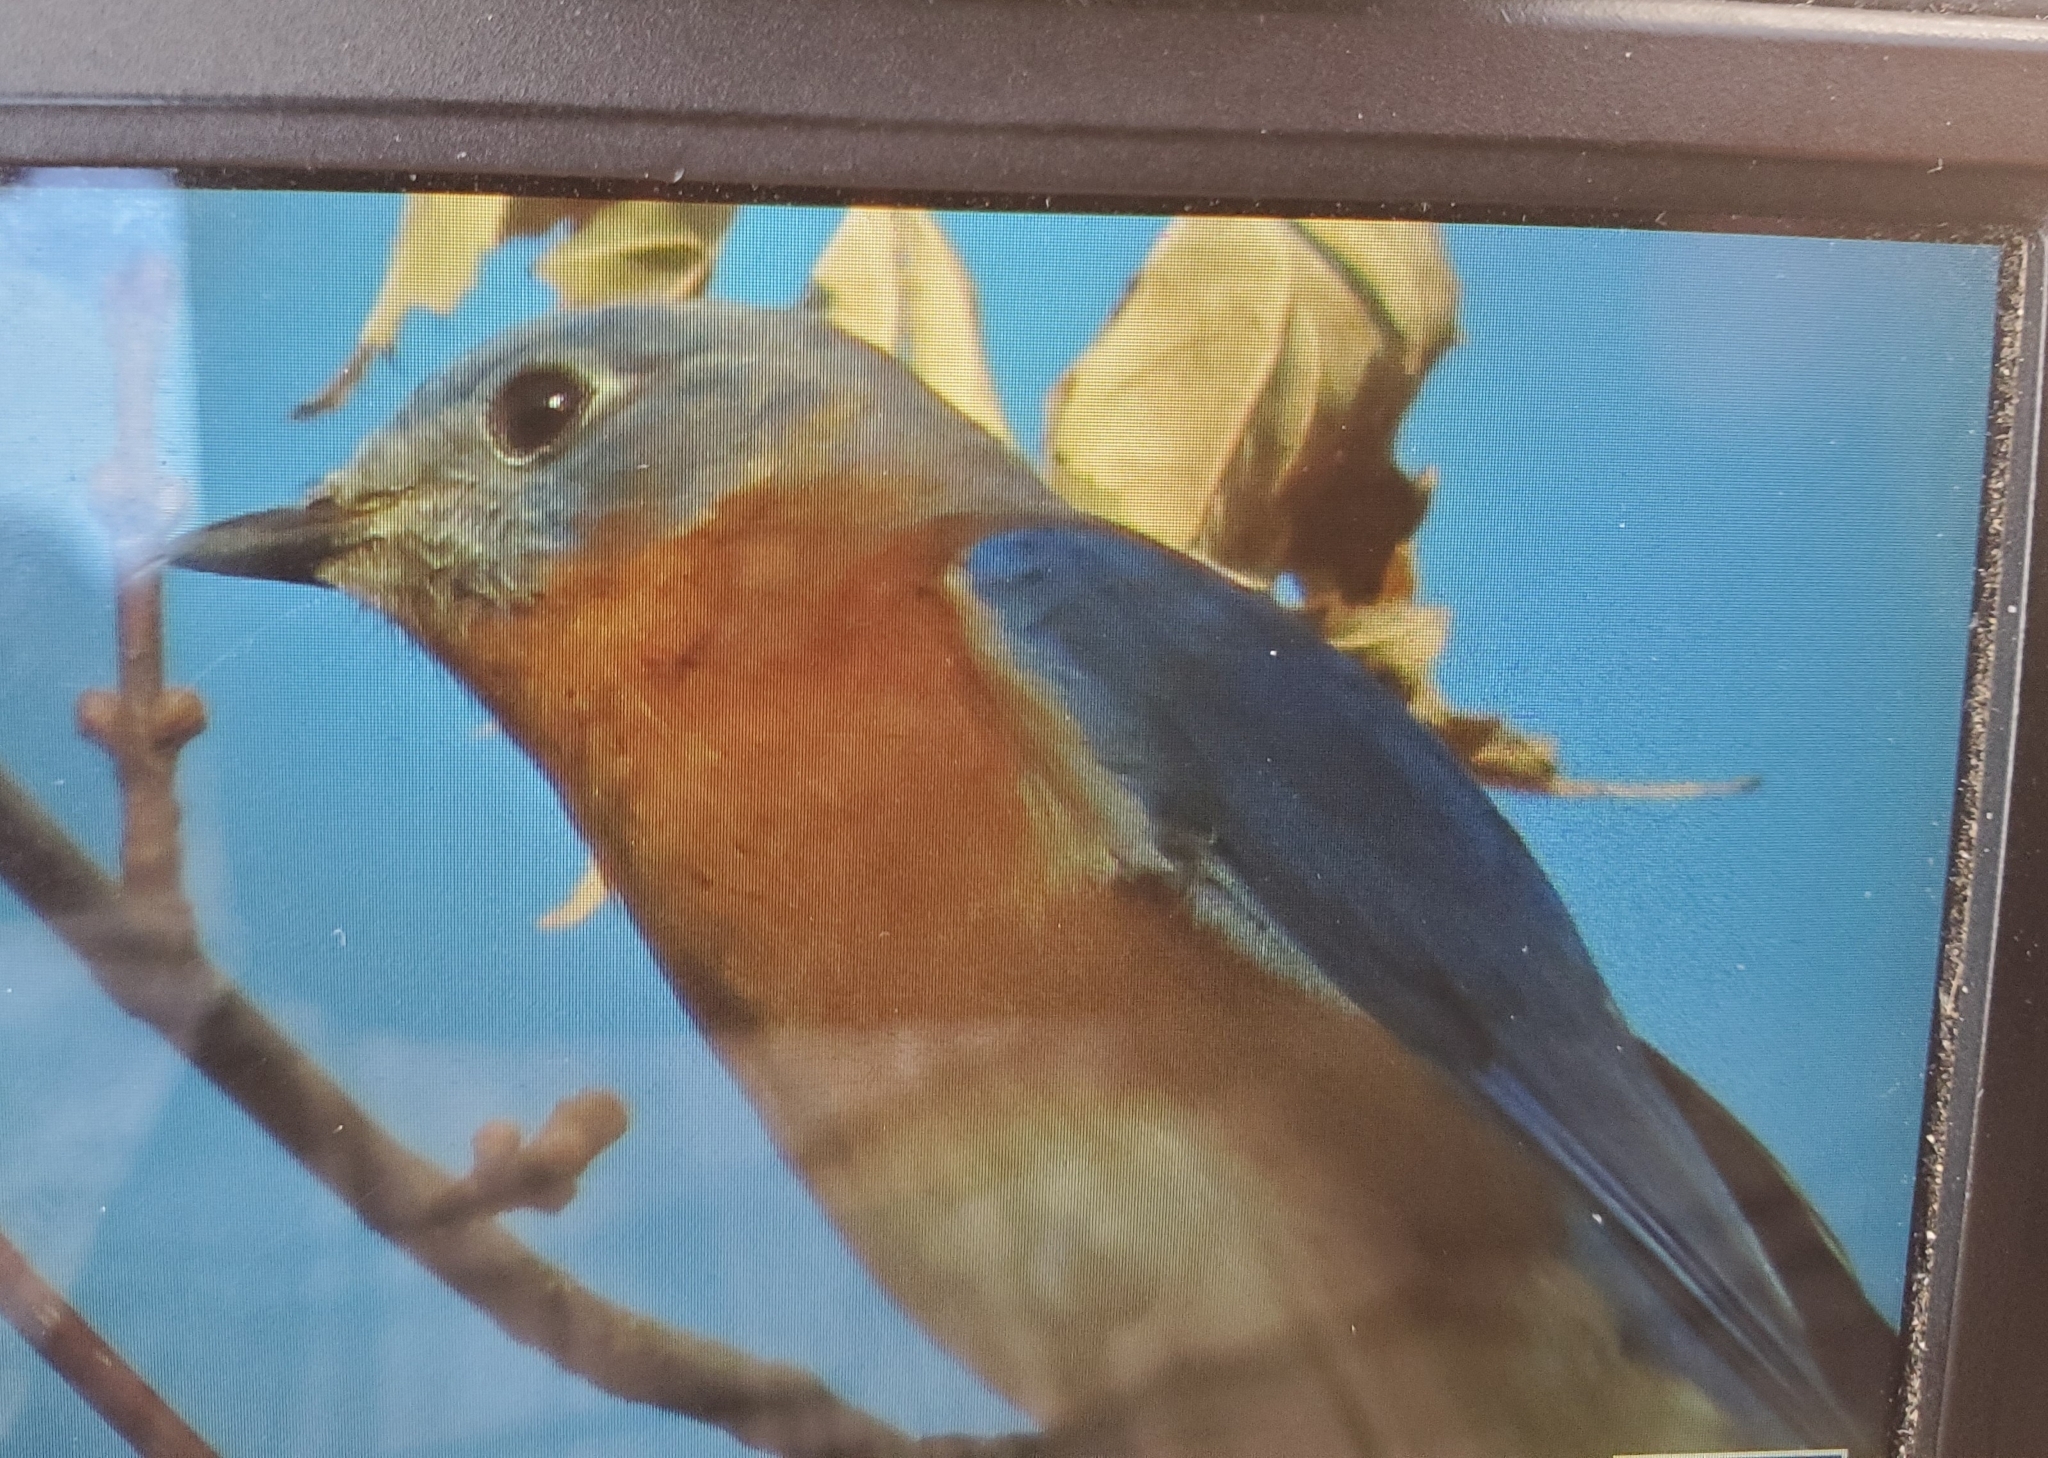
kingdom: Animalia
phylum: Chordata
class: Aves
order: Passeriformes
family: Turdidae
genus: Sialia
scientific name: Sialia sialis
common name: Eastern bluebird
